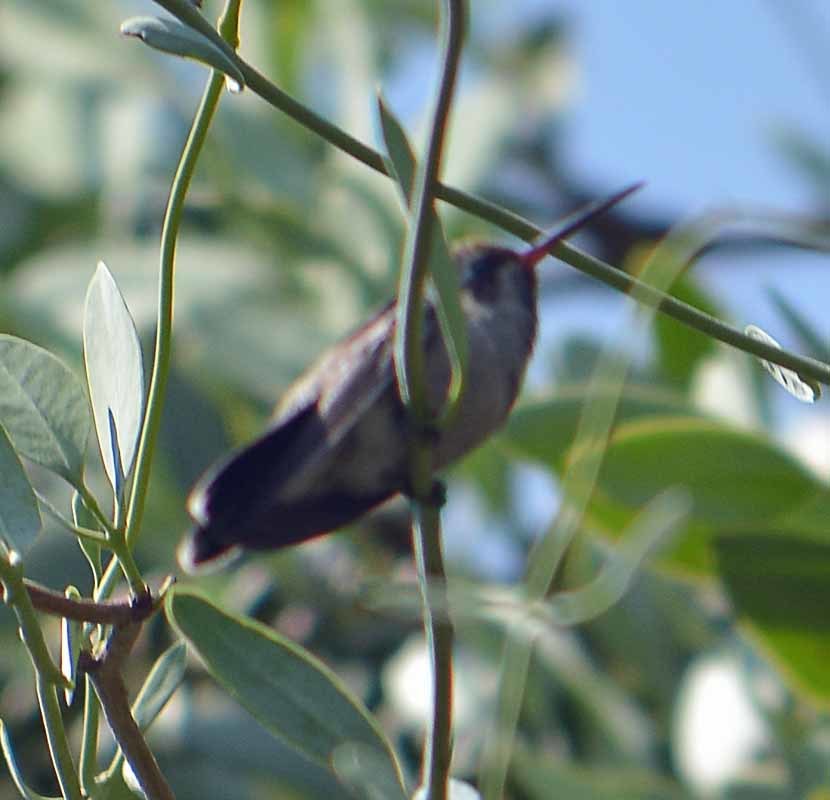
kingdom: Animalia
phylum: Chordata
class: Aves
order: Apodiformes
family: Trochilidae
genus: Cynanthus
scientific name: Cynanthus latirostris
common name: Broad-billed hummingbird
